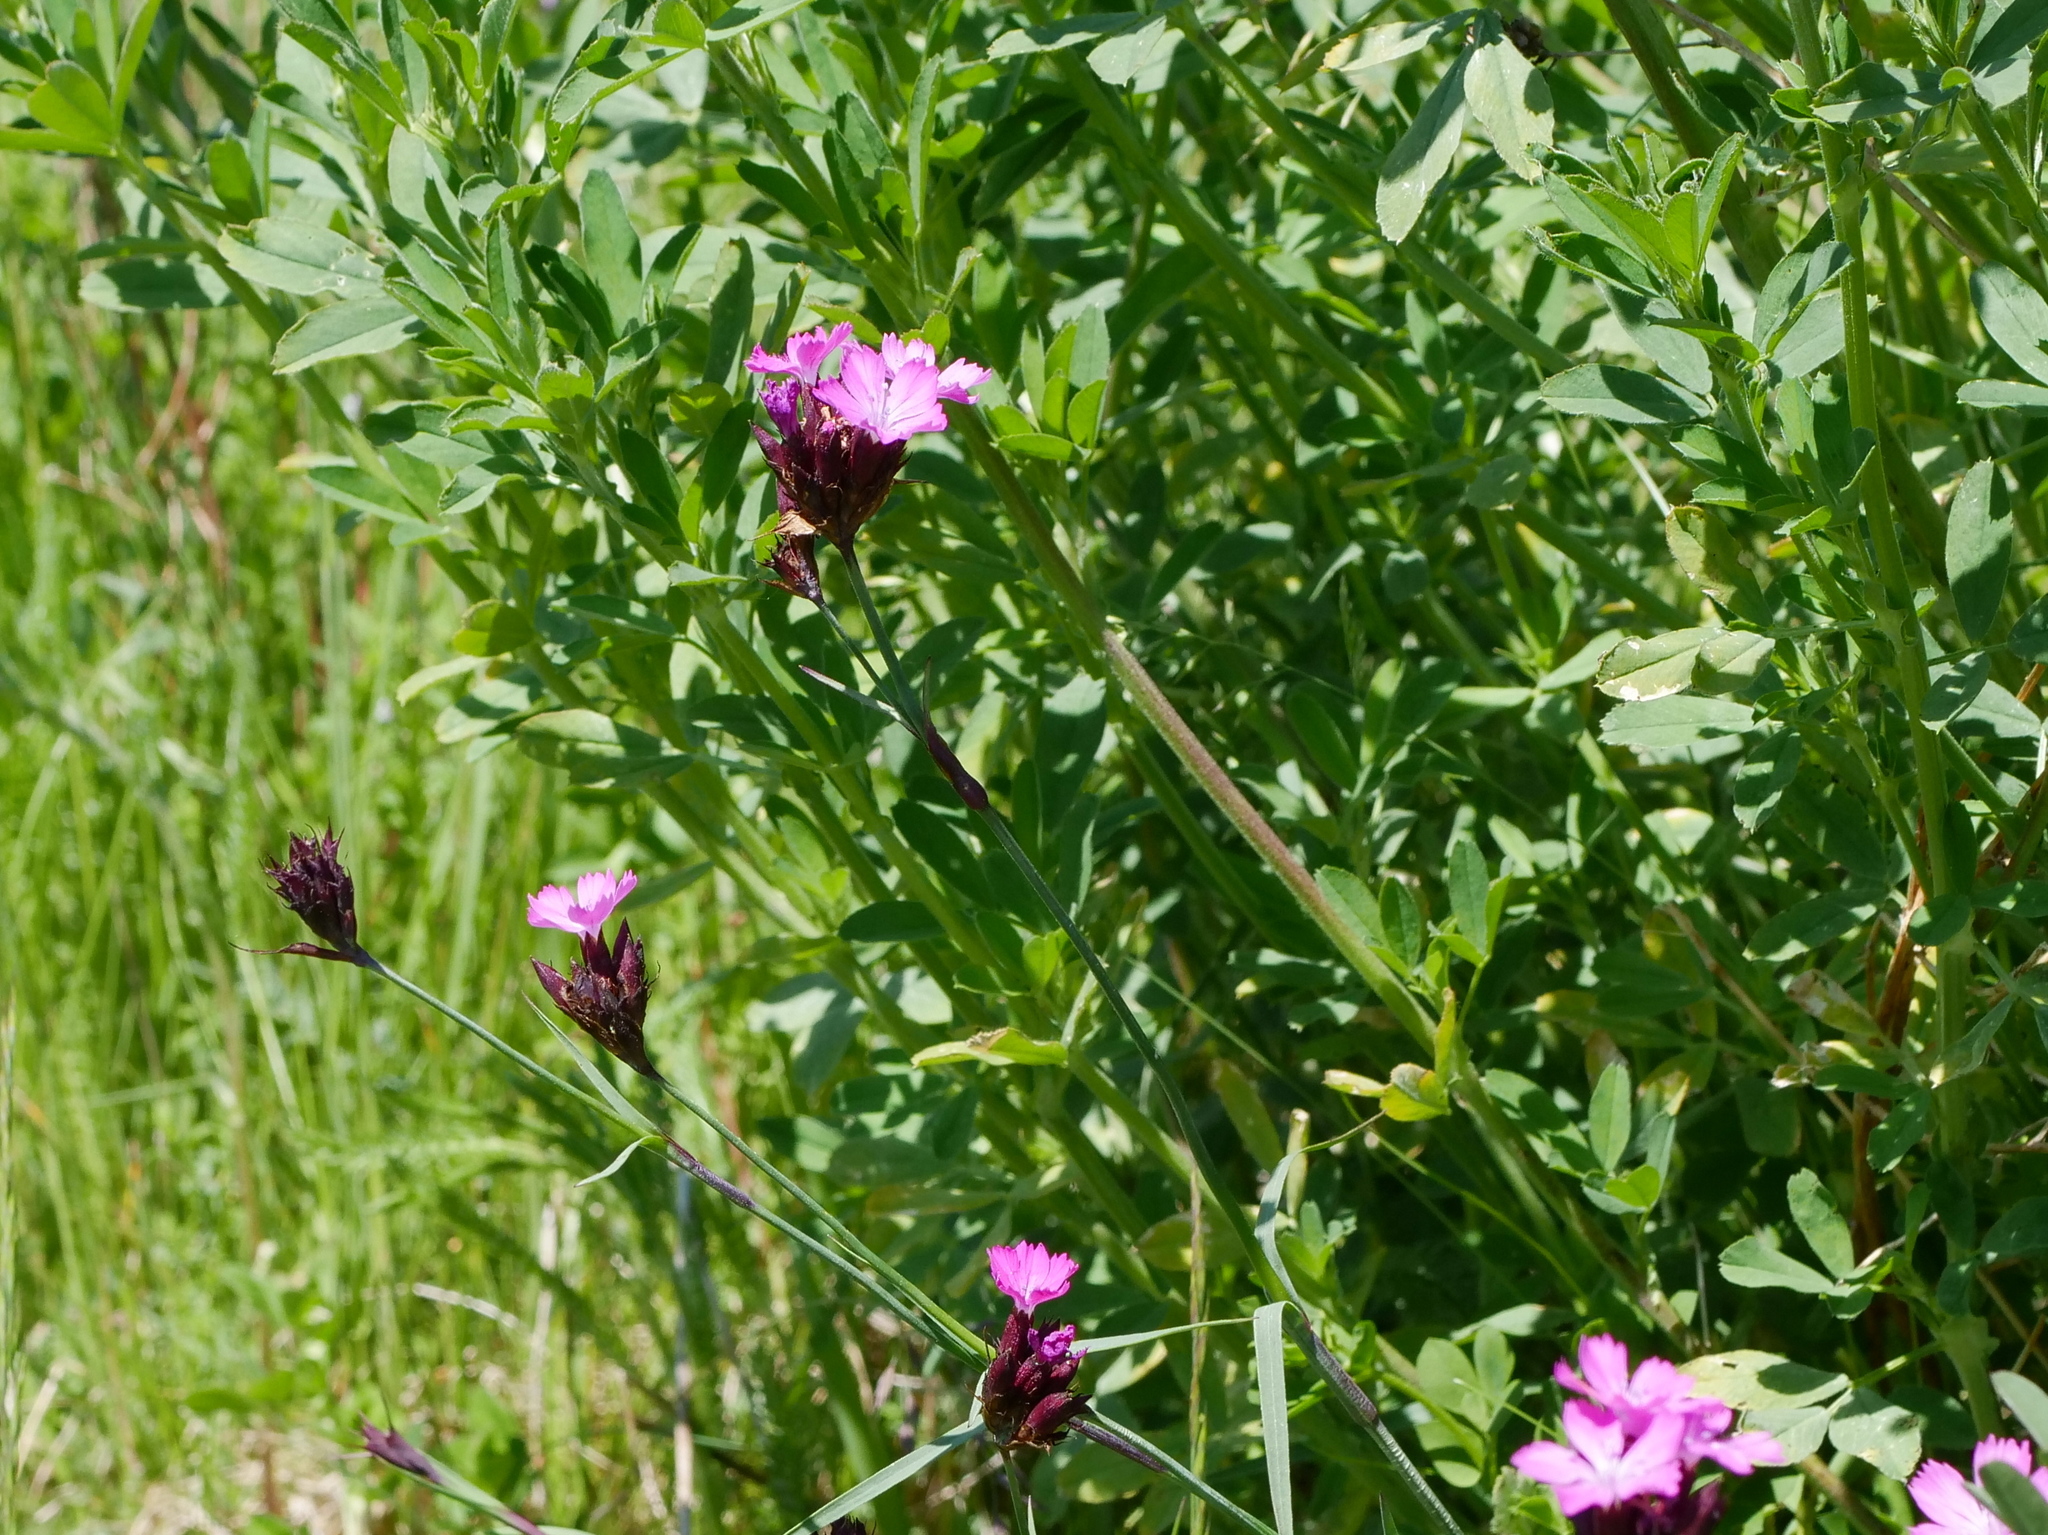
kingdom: Plantae
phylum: Tracheophyta
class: Magnoliopsida
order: Caryophyllales
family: Caryophyllaceae
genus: Dianthus
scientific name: Dianthus carthusianorum
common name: Carthusian pink
